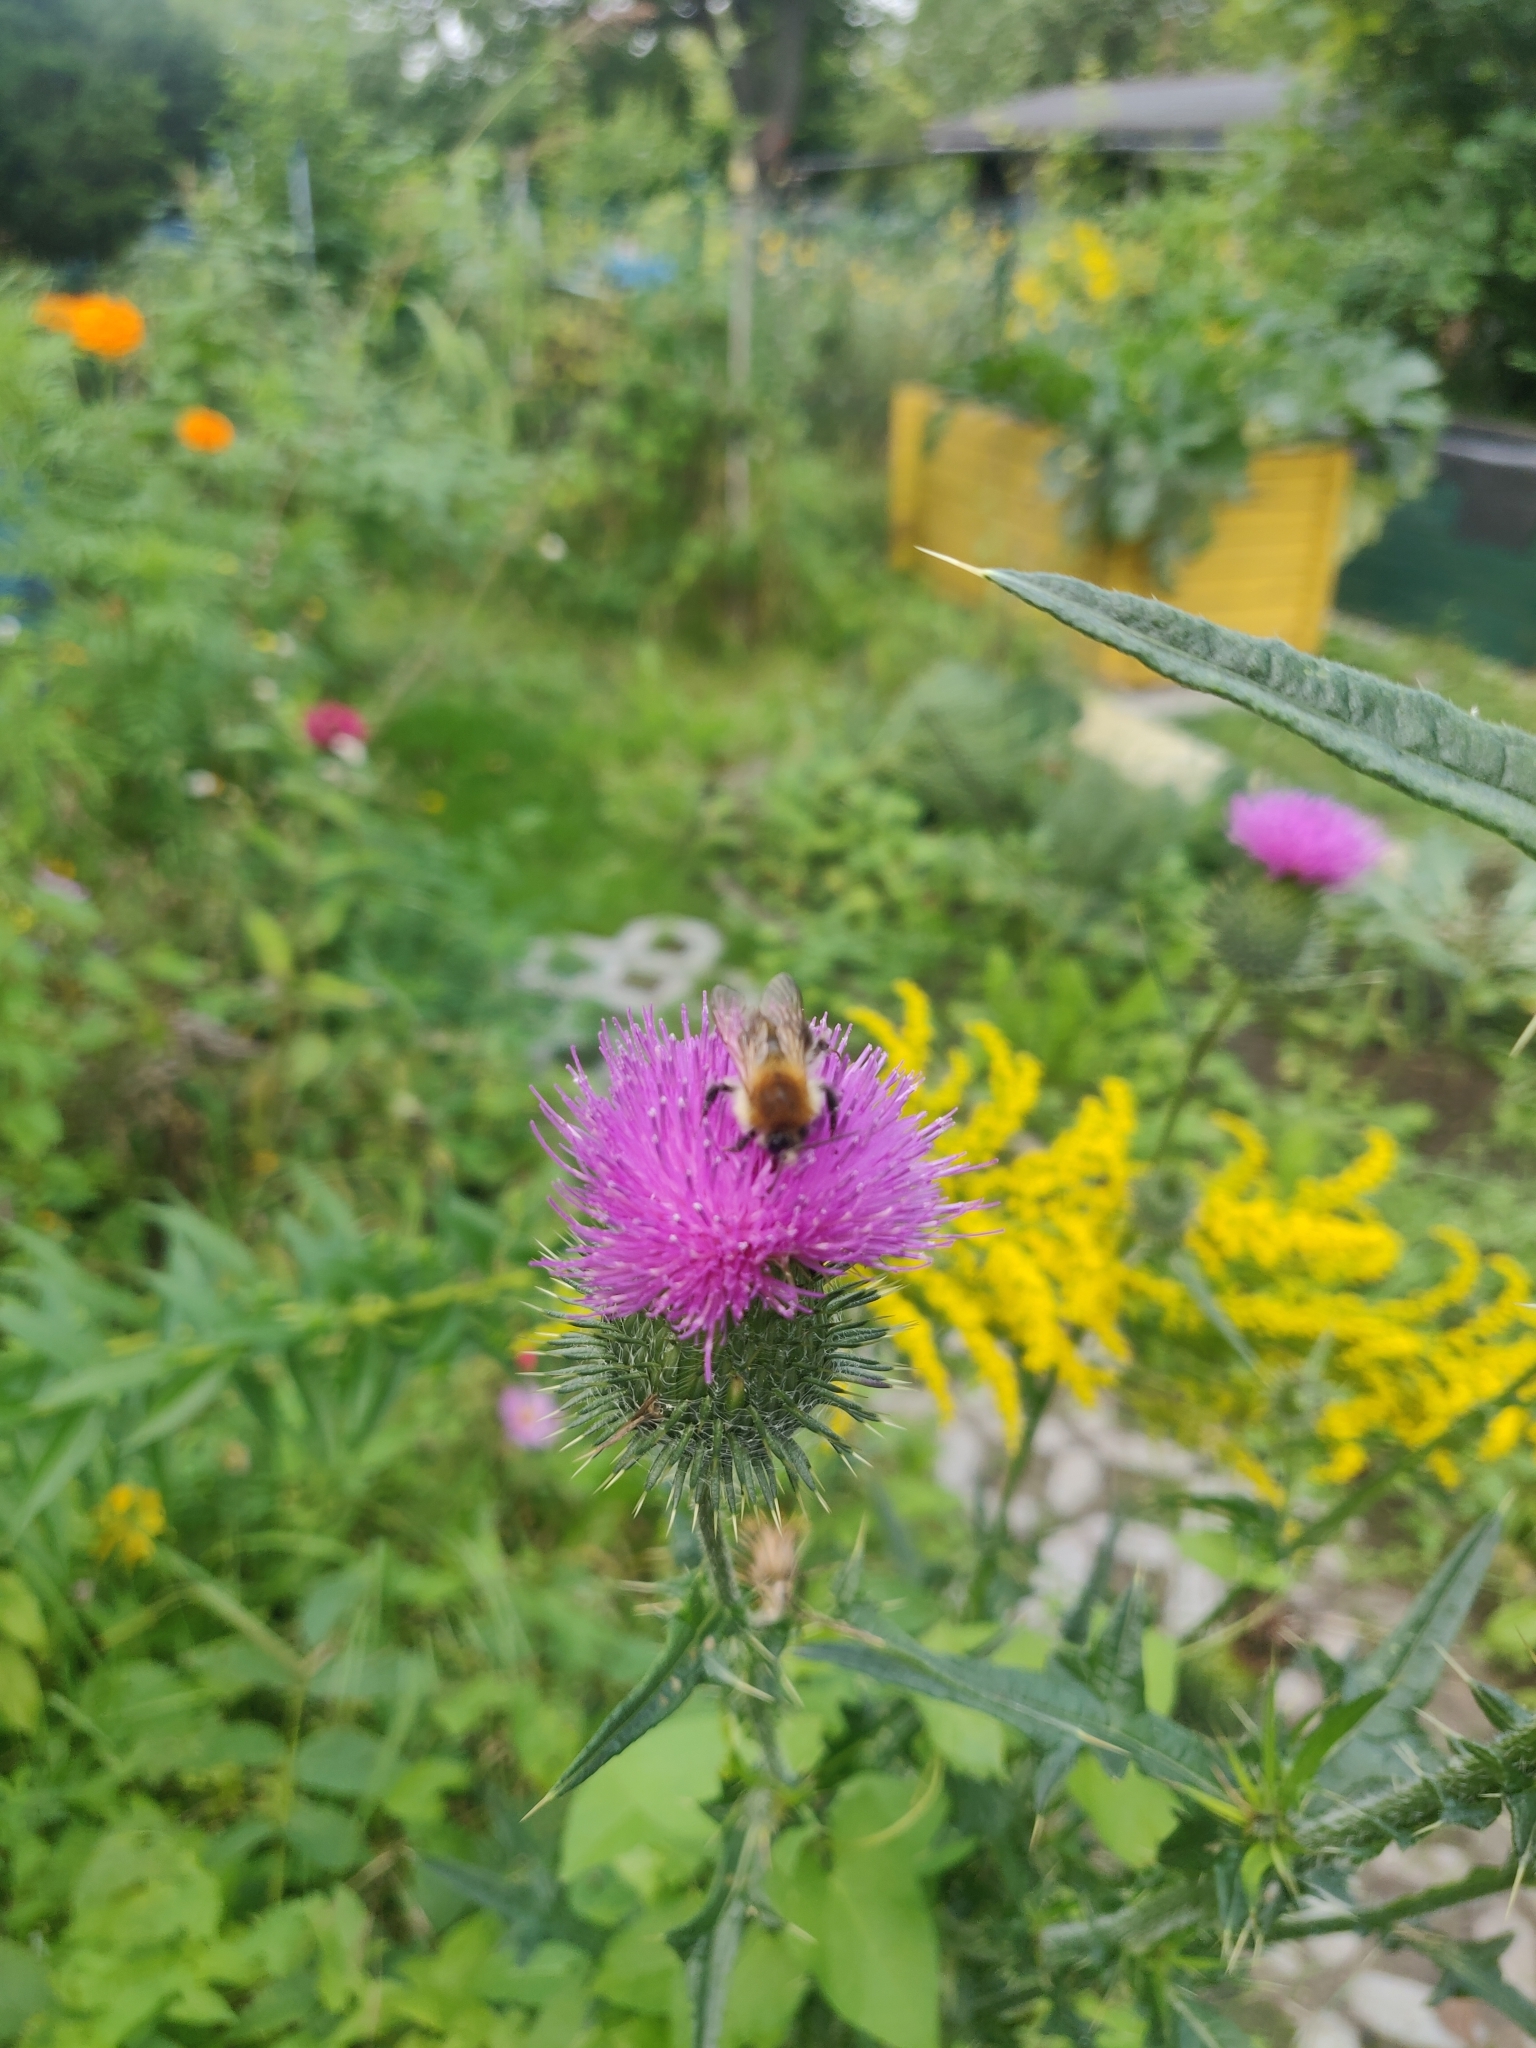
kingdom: Plantae
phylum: Tracheophyta
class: Magnoliopsida
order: Asterales
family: Asteraceae
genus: Cirsium
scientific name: Cirsium vulgare
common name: Bull thistle
